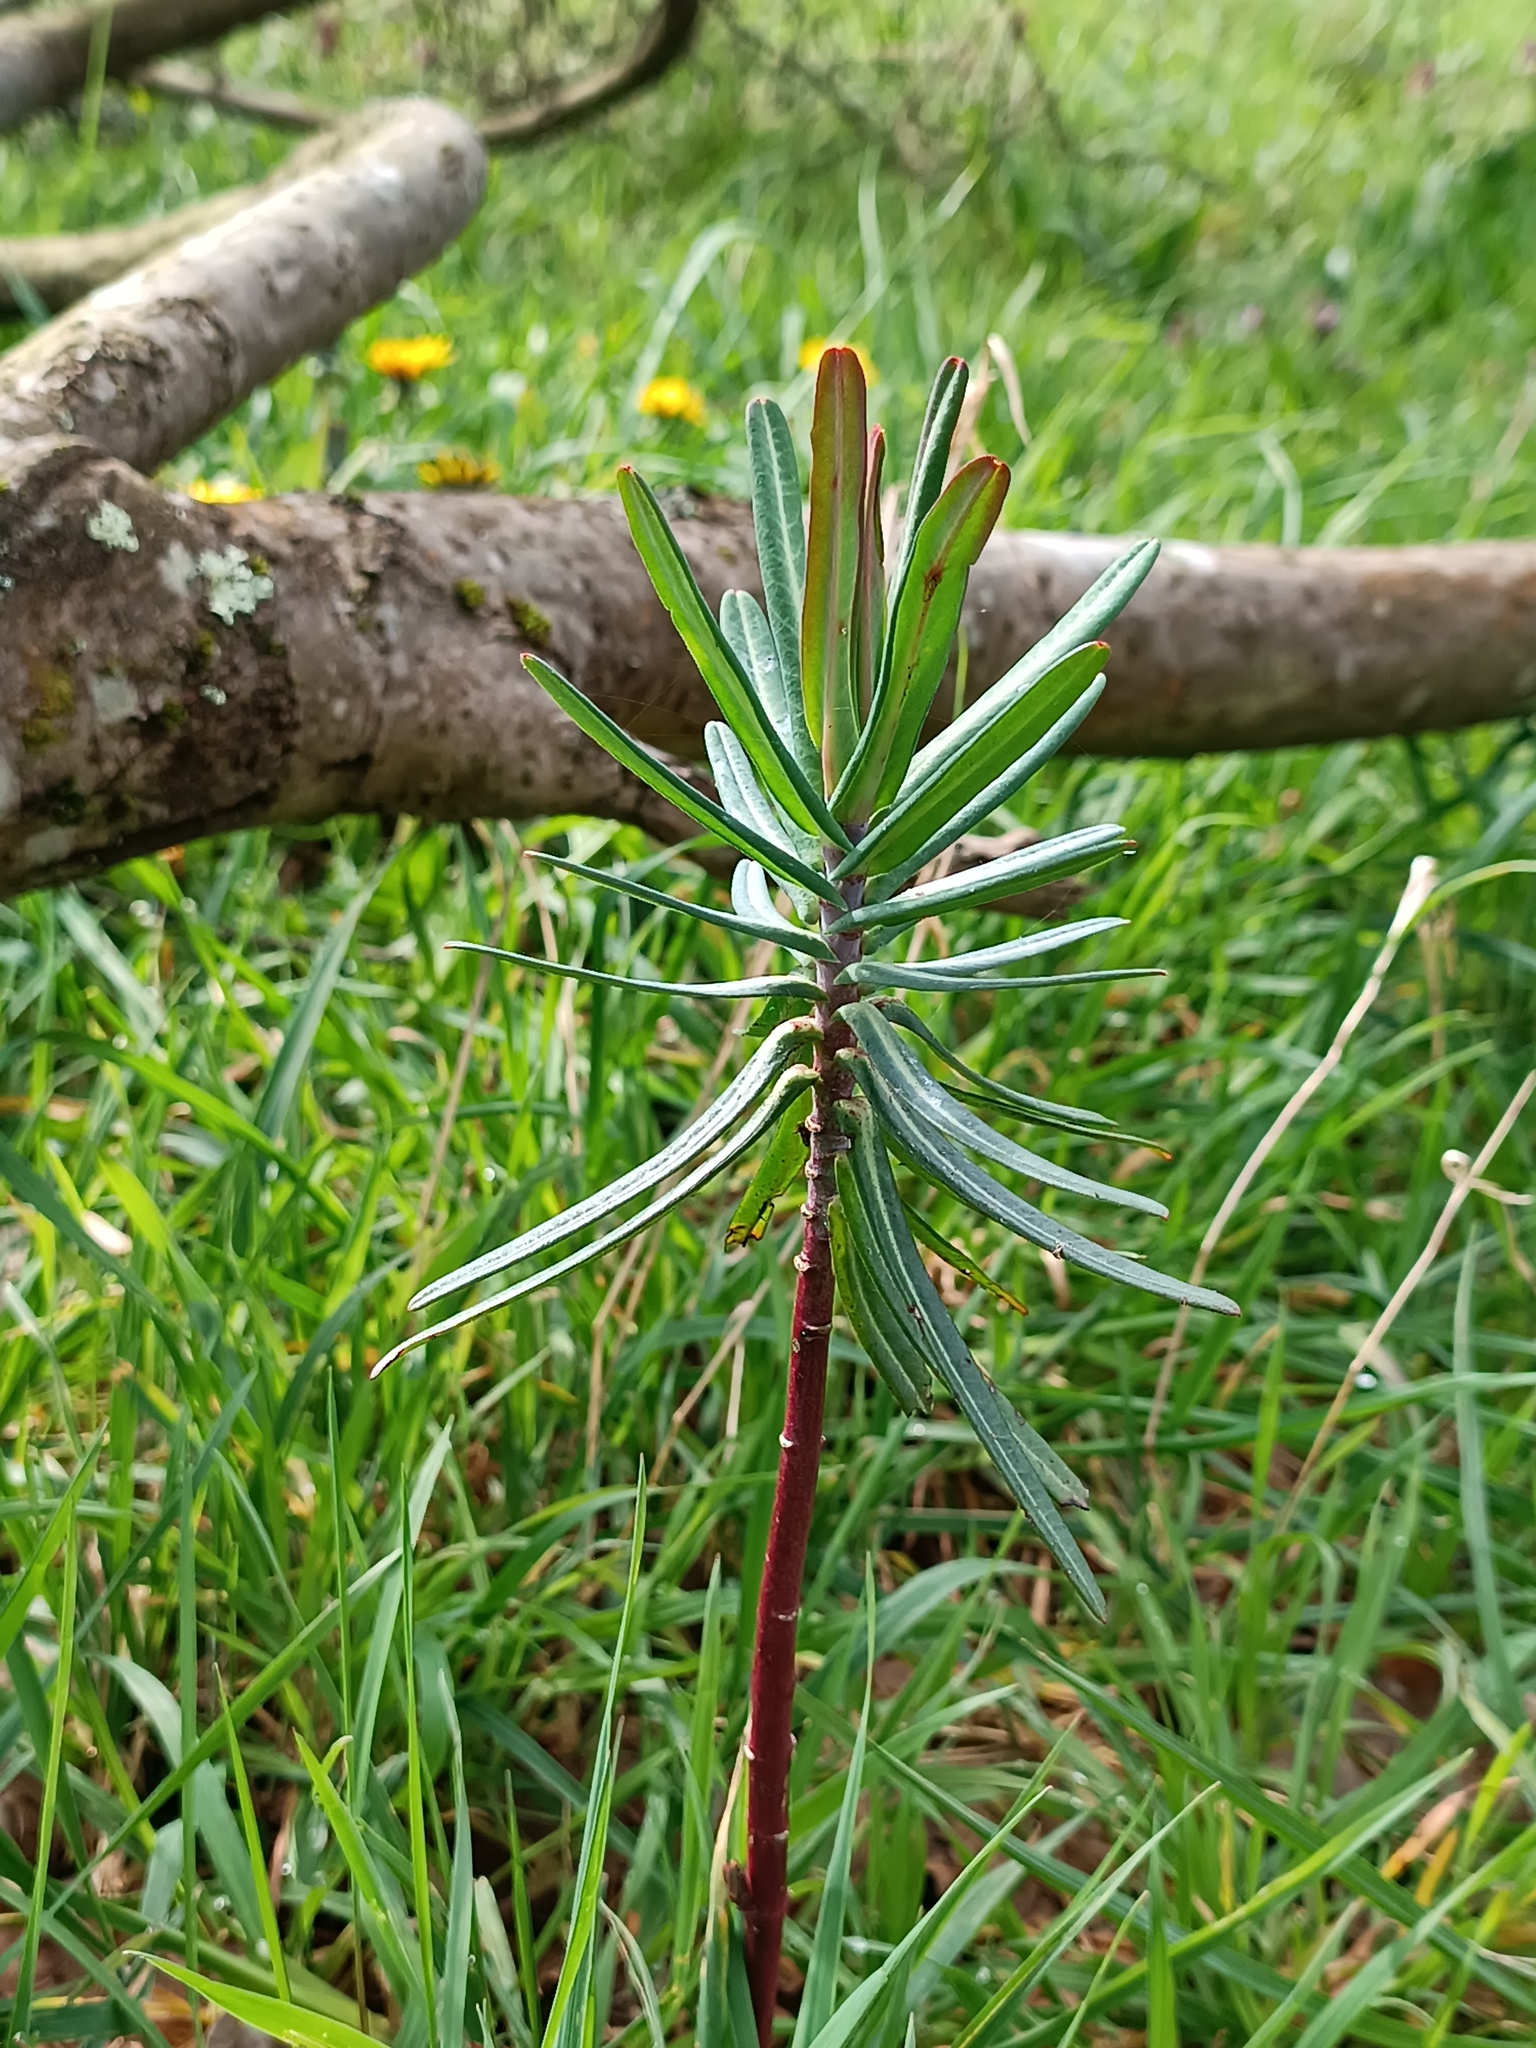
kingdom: Plantae
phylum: Tracheophyta
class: Magnoliopsida
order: Malpighiales
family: Euphorbiaceae
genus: Euphorbia
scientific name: Euphorbia lathyris
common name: Caper spurge
